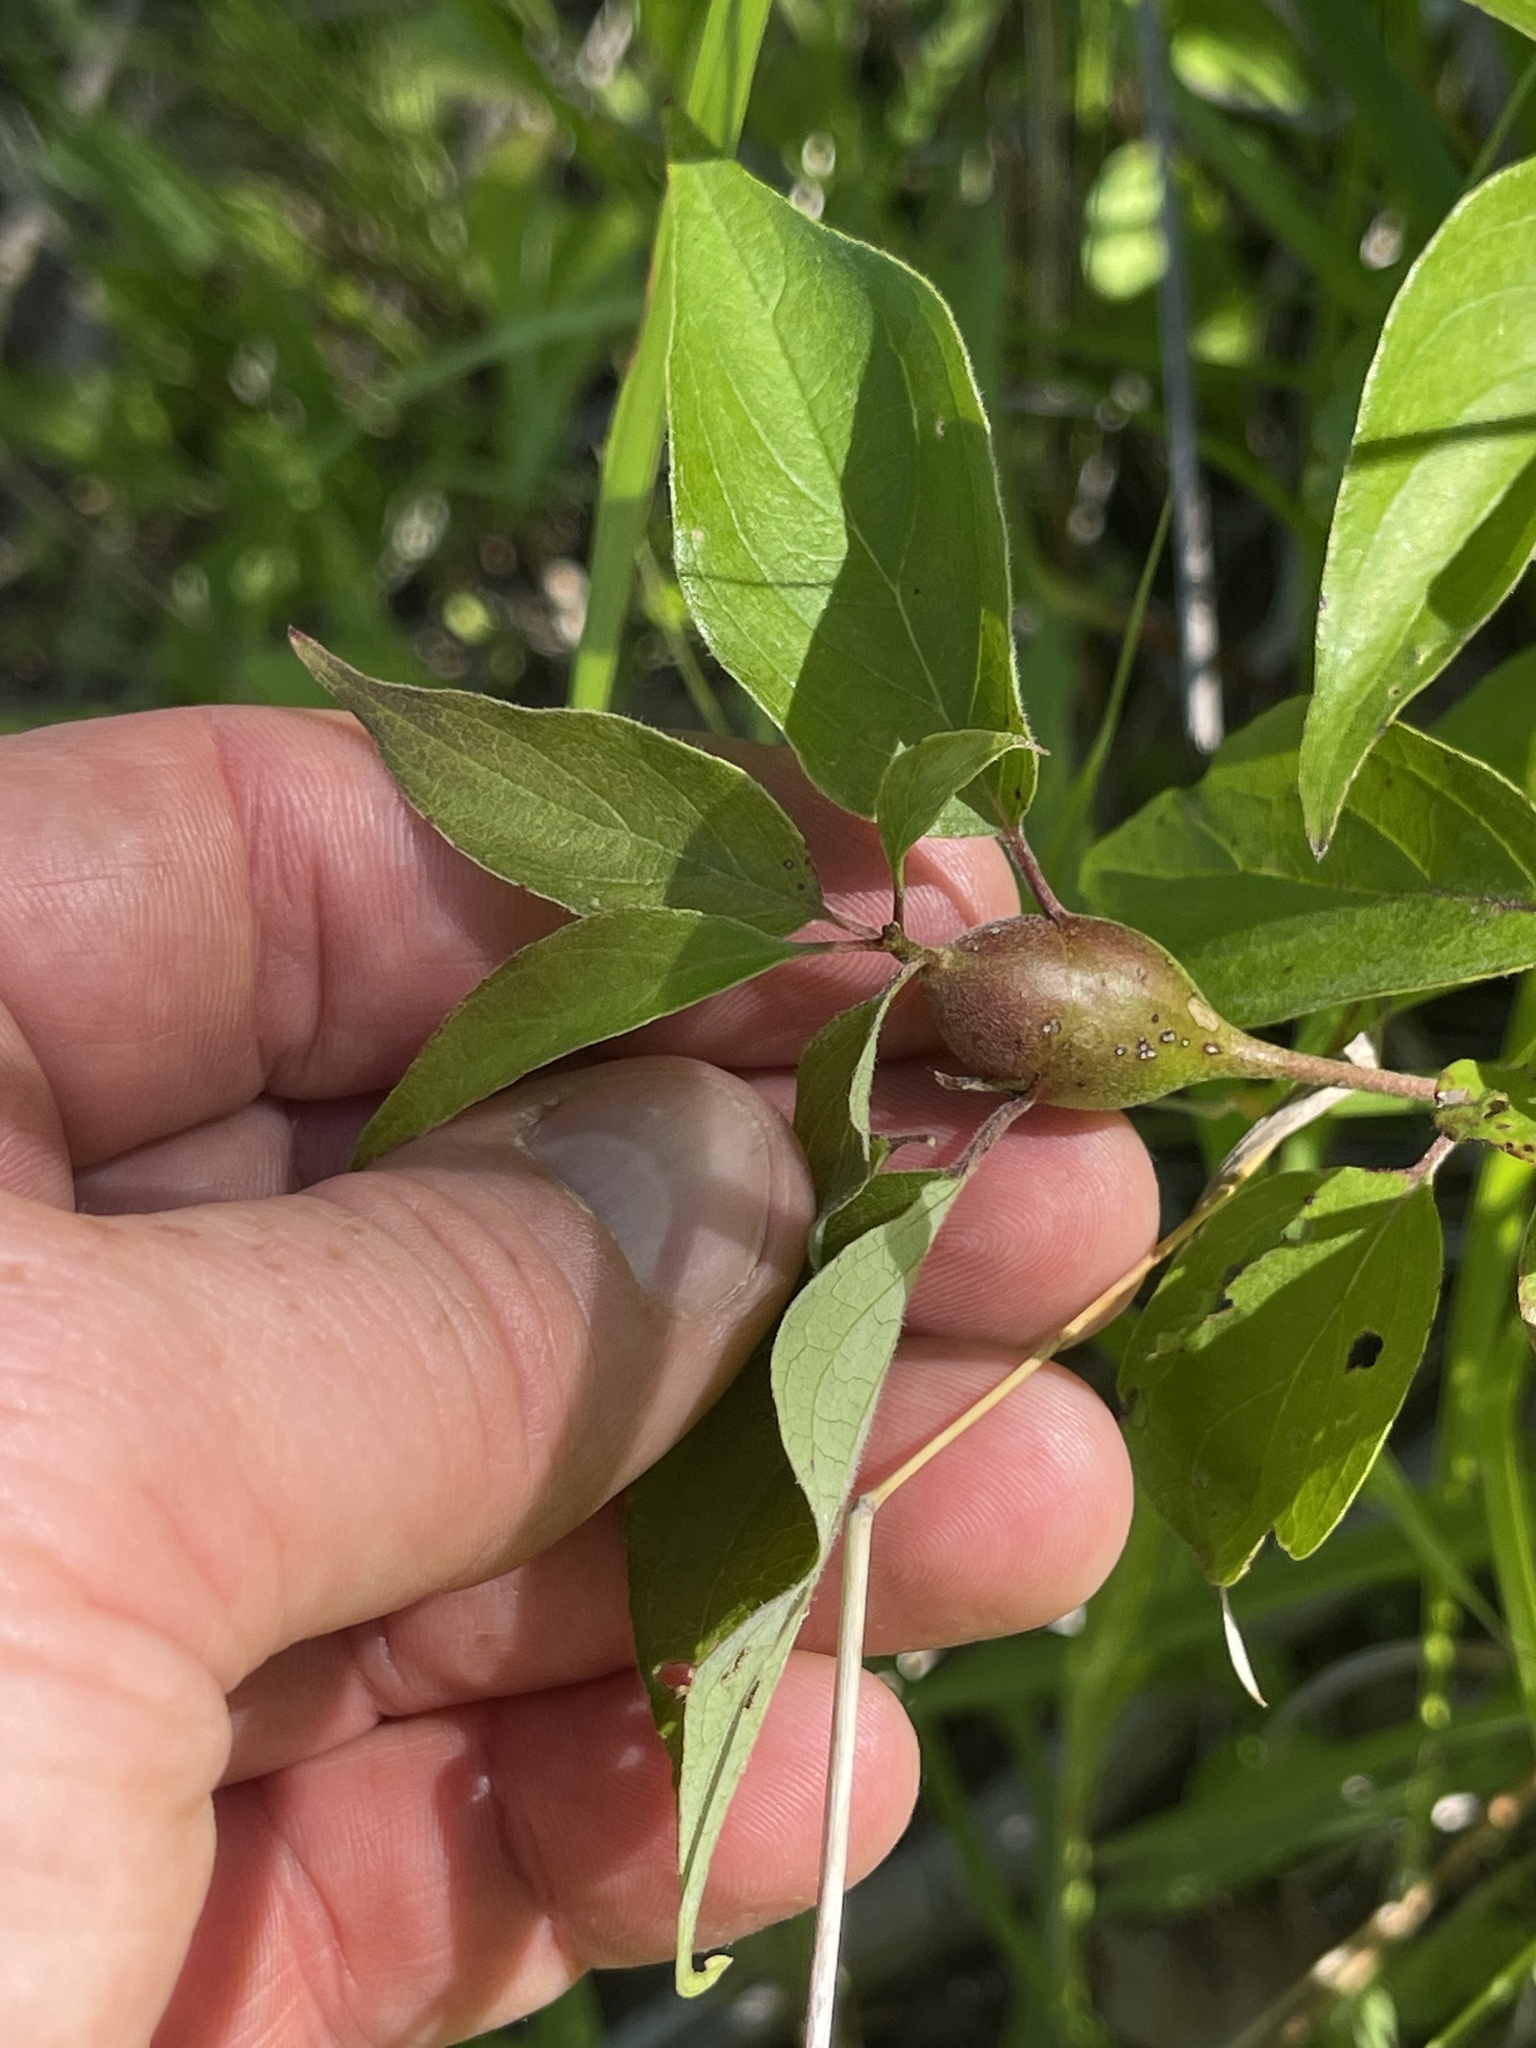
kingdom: Animalia
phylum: Arthropoda
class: Insecta
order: Diptera
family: Cecidomyiidae
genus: Resseliella
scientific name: Resseliella clavula
